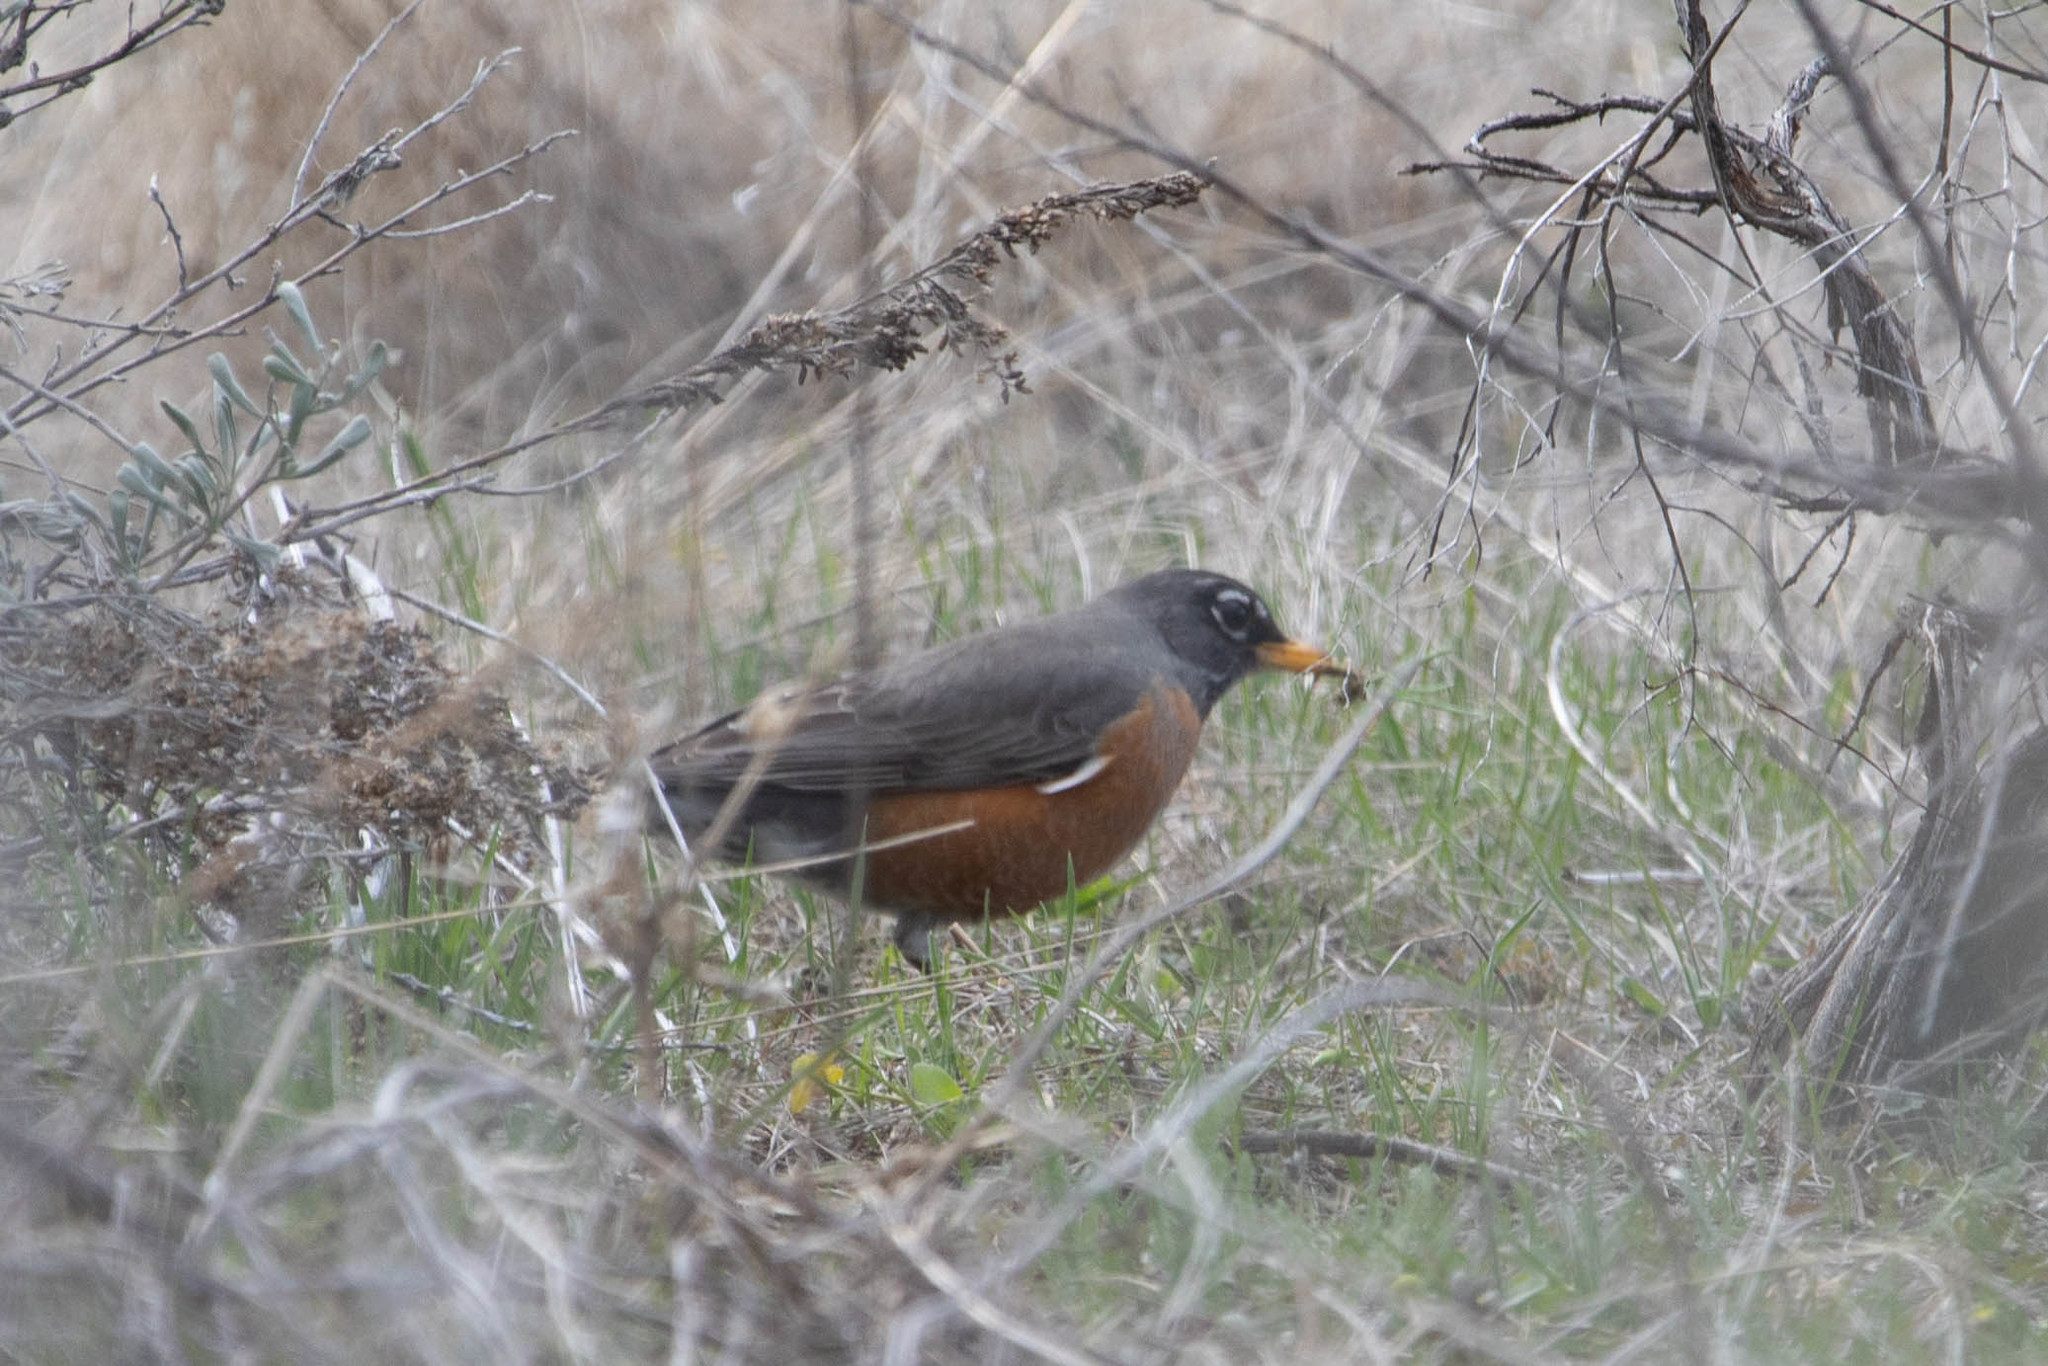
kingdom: Animalia
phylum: Chordata
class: Aves
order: Passeriformes
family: Turdidae
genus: Turdus
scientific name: Turdus migratorius
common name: American robin
